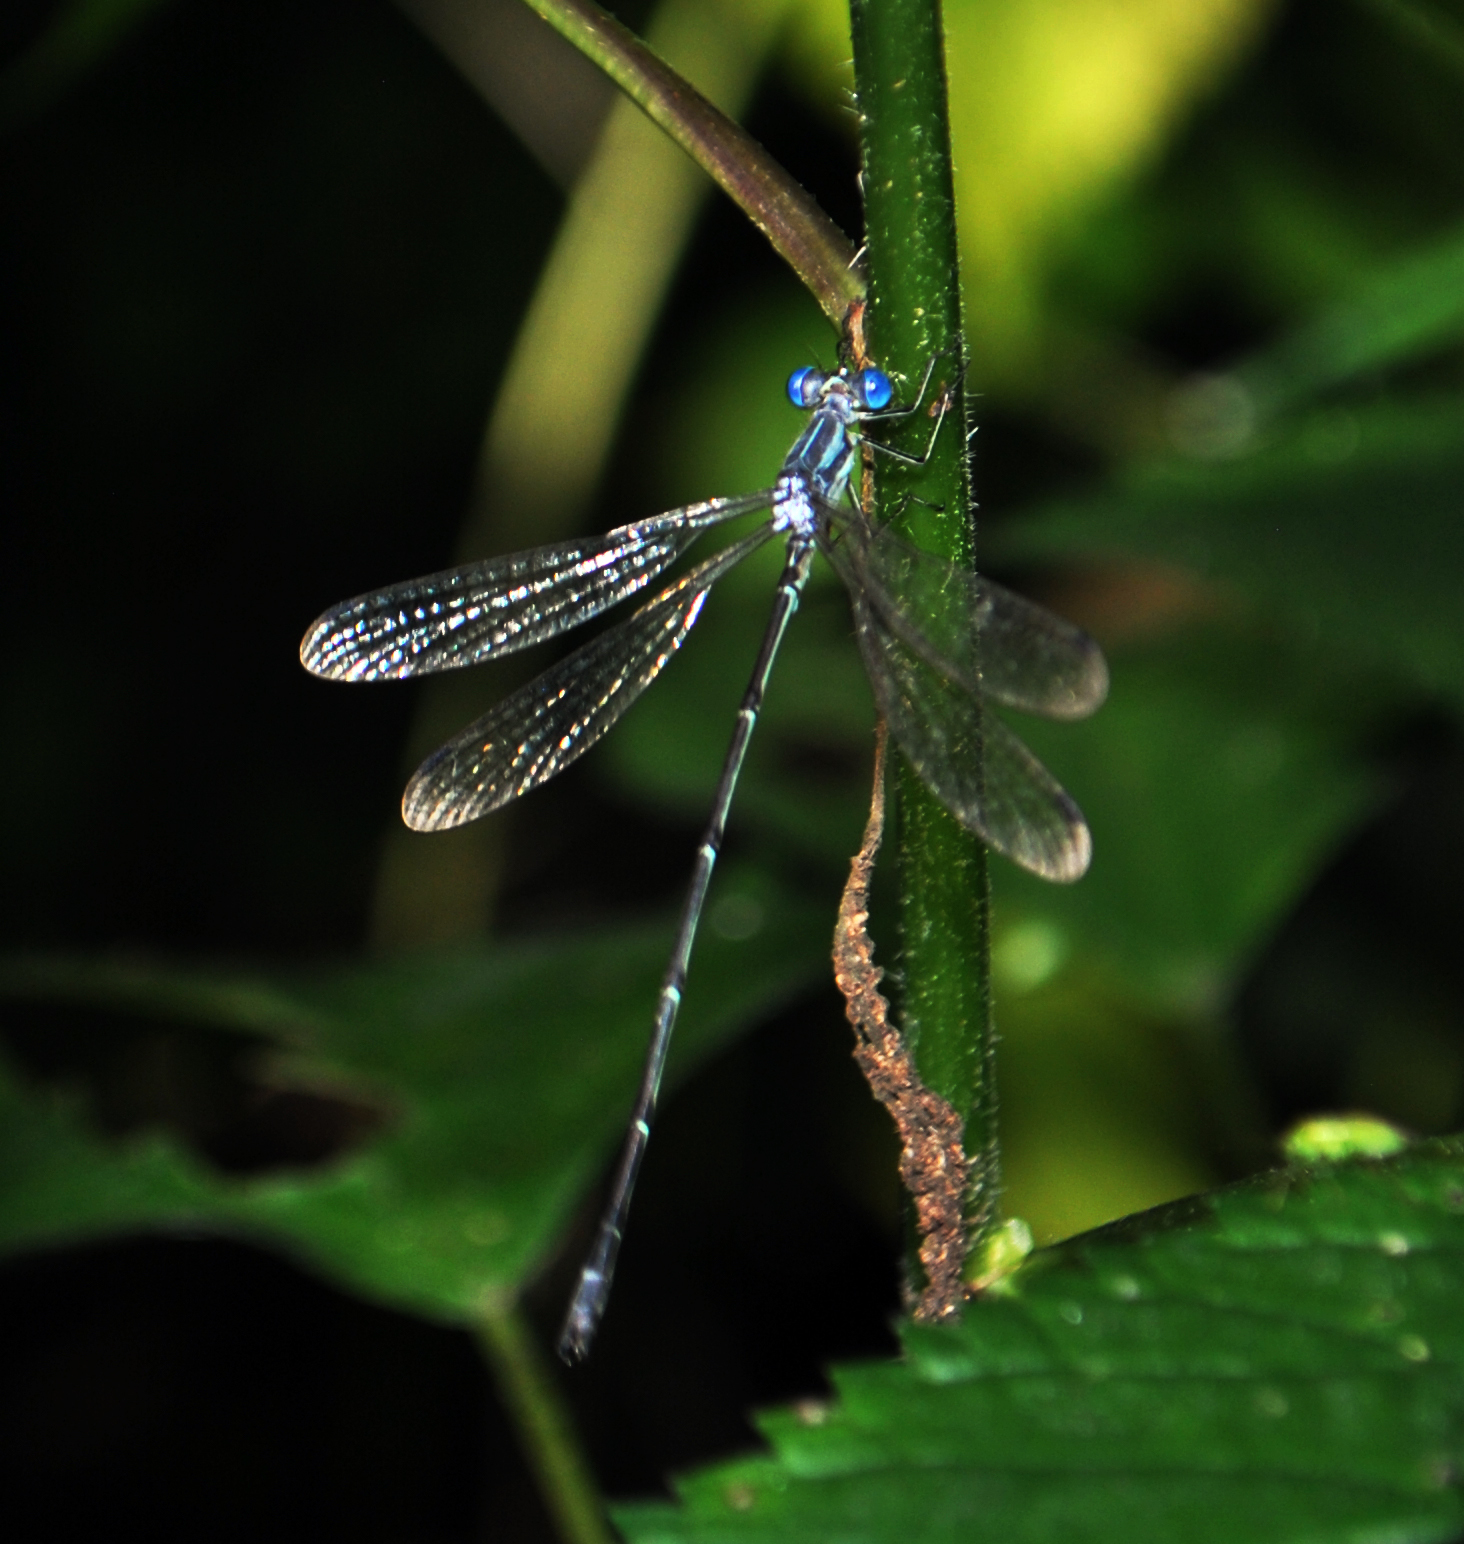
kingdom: Animalia
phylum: Arthropoda
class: Insecta
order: Odonata
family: Lestidae
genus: Lestes
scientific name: Lestes rectangularis
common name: Slender spreadwing
